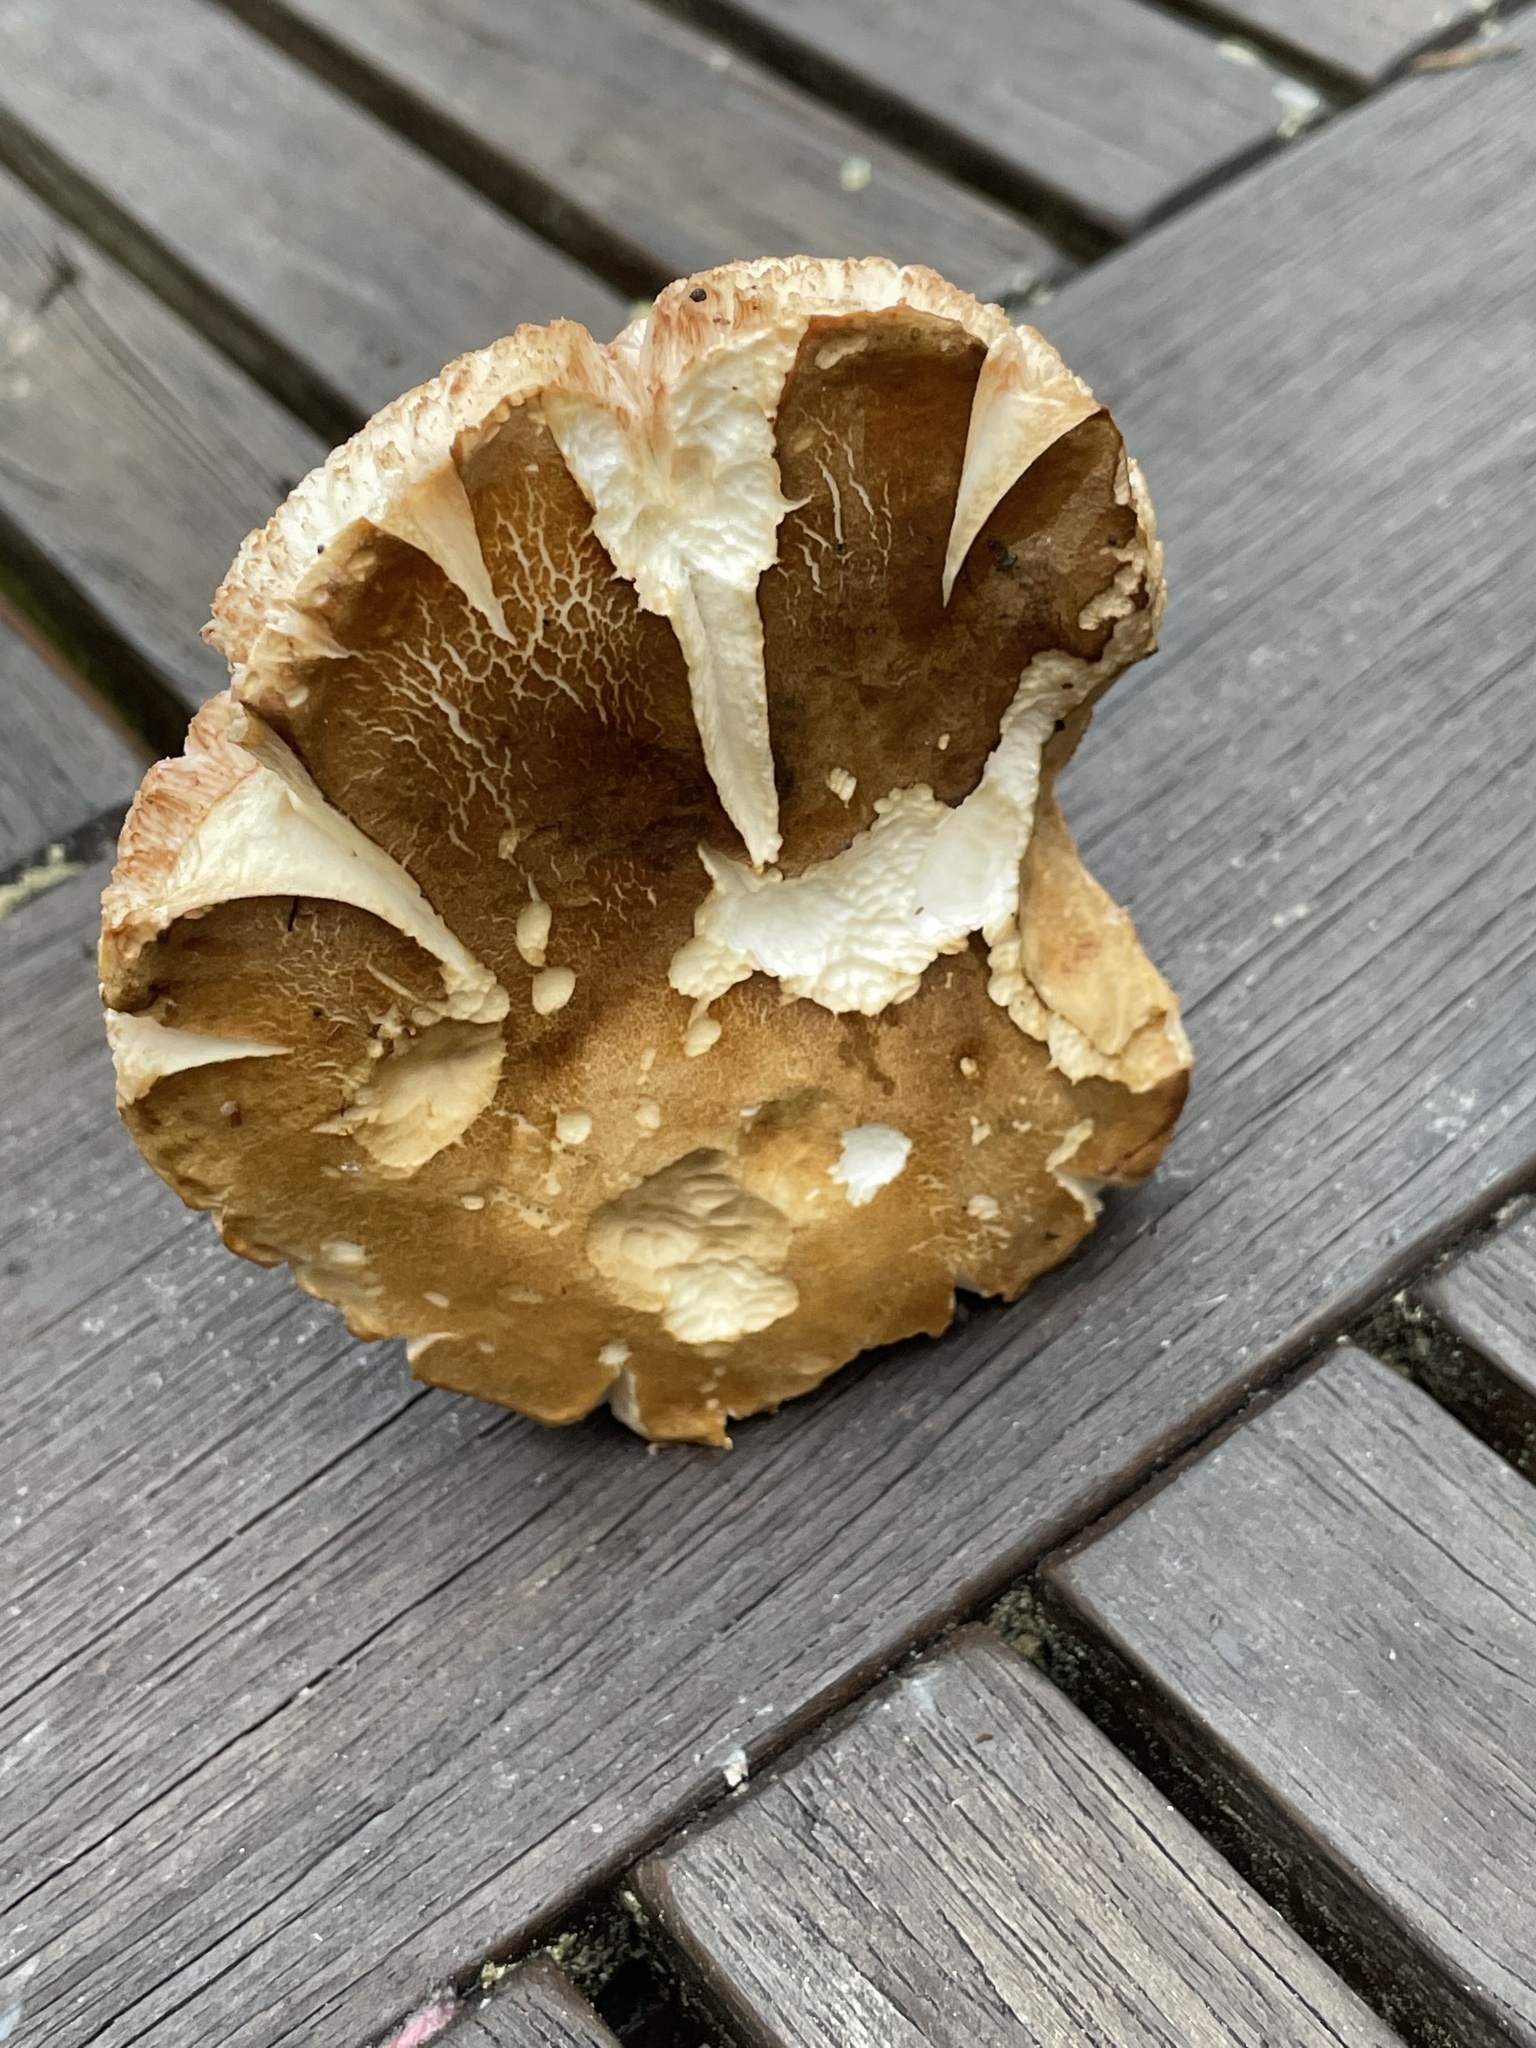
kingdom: Fungi
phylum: Basidiomycota
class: Agaricomycetes
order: Boletales
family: Boletaceae
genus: Tylopilus
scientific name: Tylopilus felleus
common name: Bitter bolete
